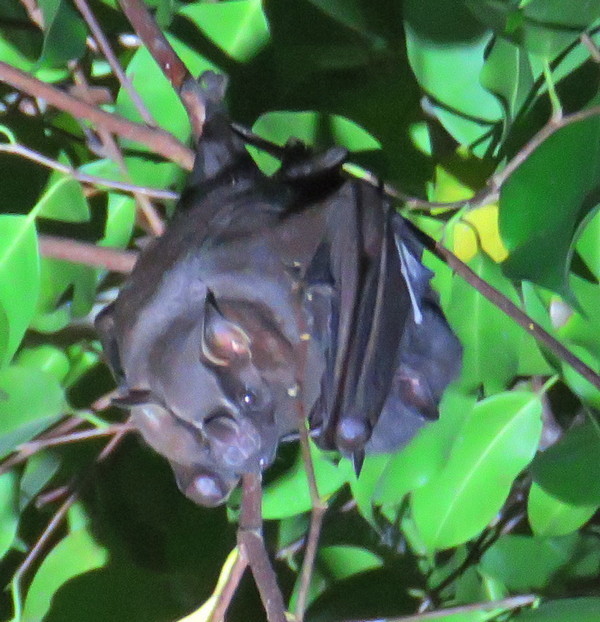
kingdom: Animalia
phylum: Chordata
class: Mammalia
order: Chiroptera
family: Phyllostomidae
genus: Artibeus
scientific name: Artibeus lituratus
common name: Great fruit-eating bat
